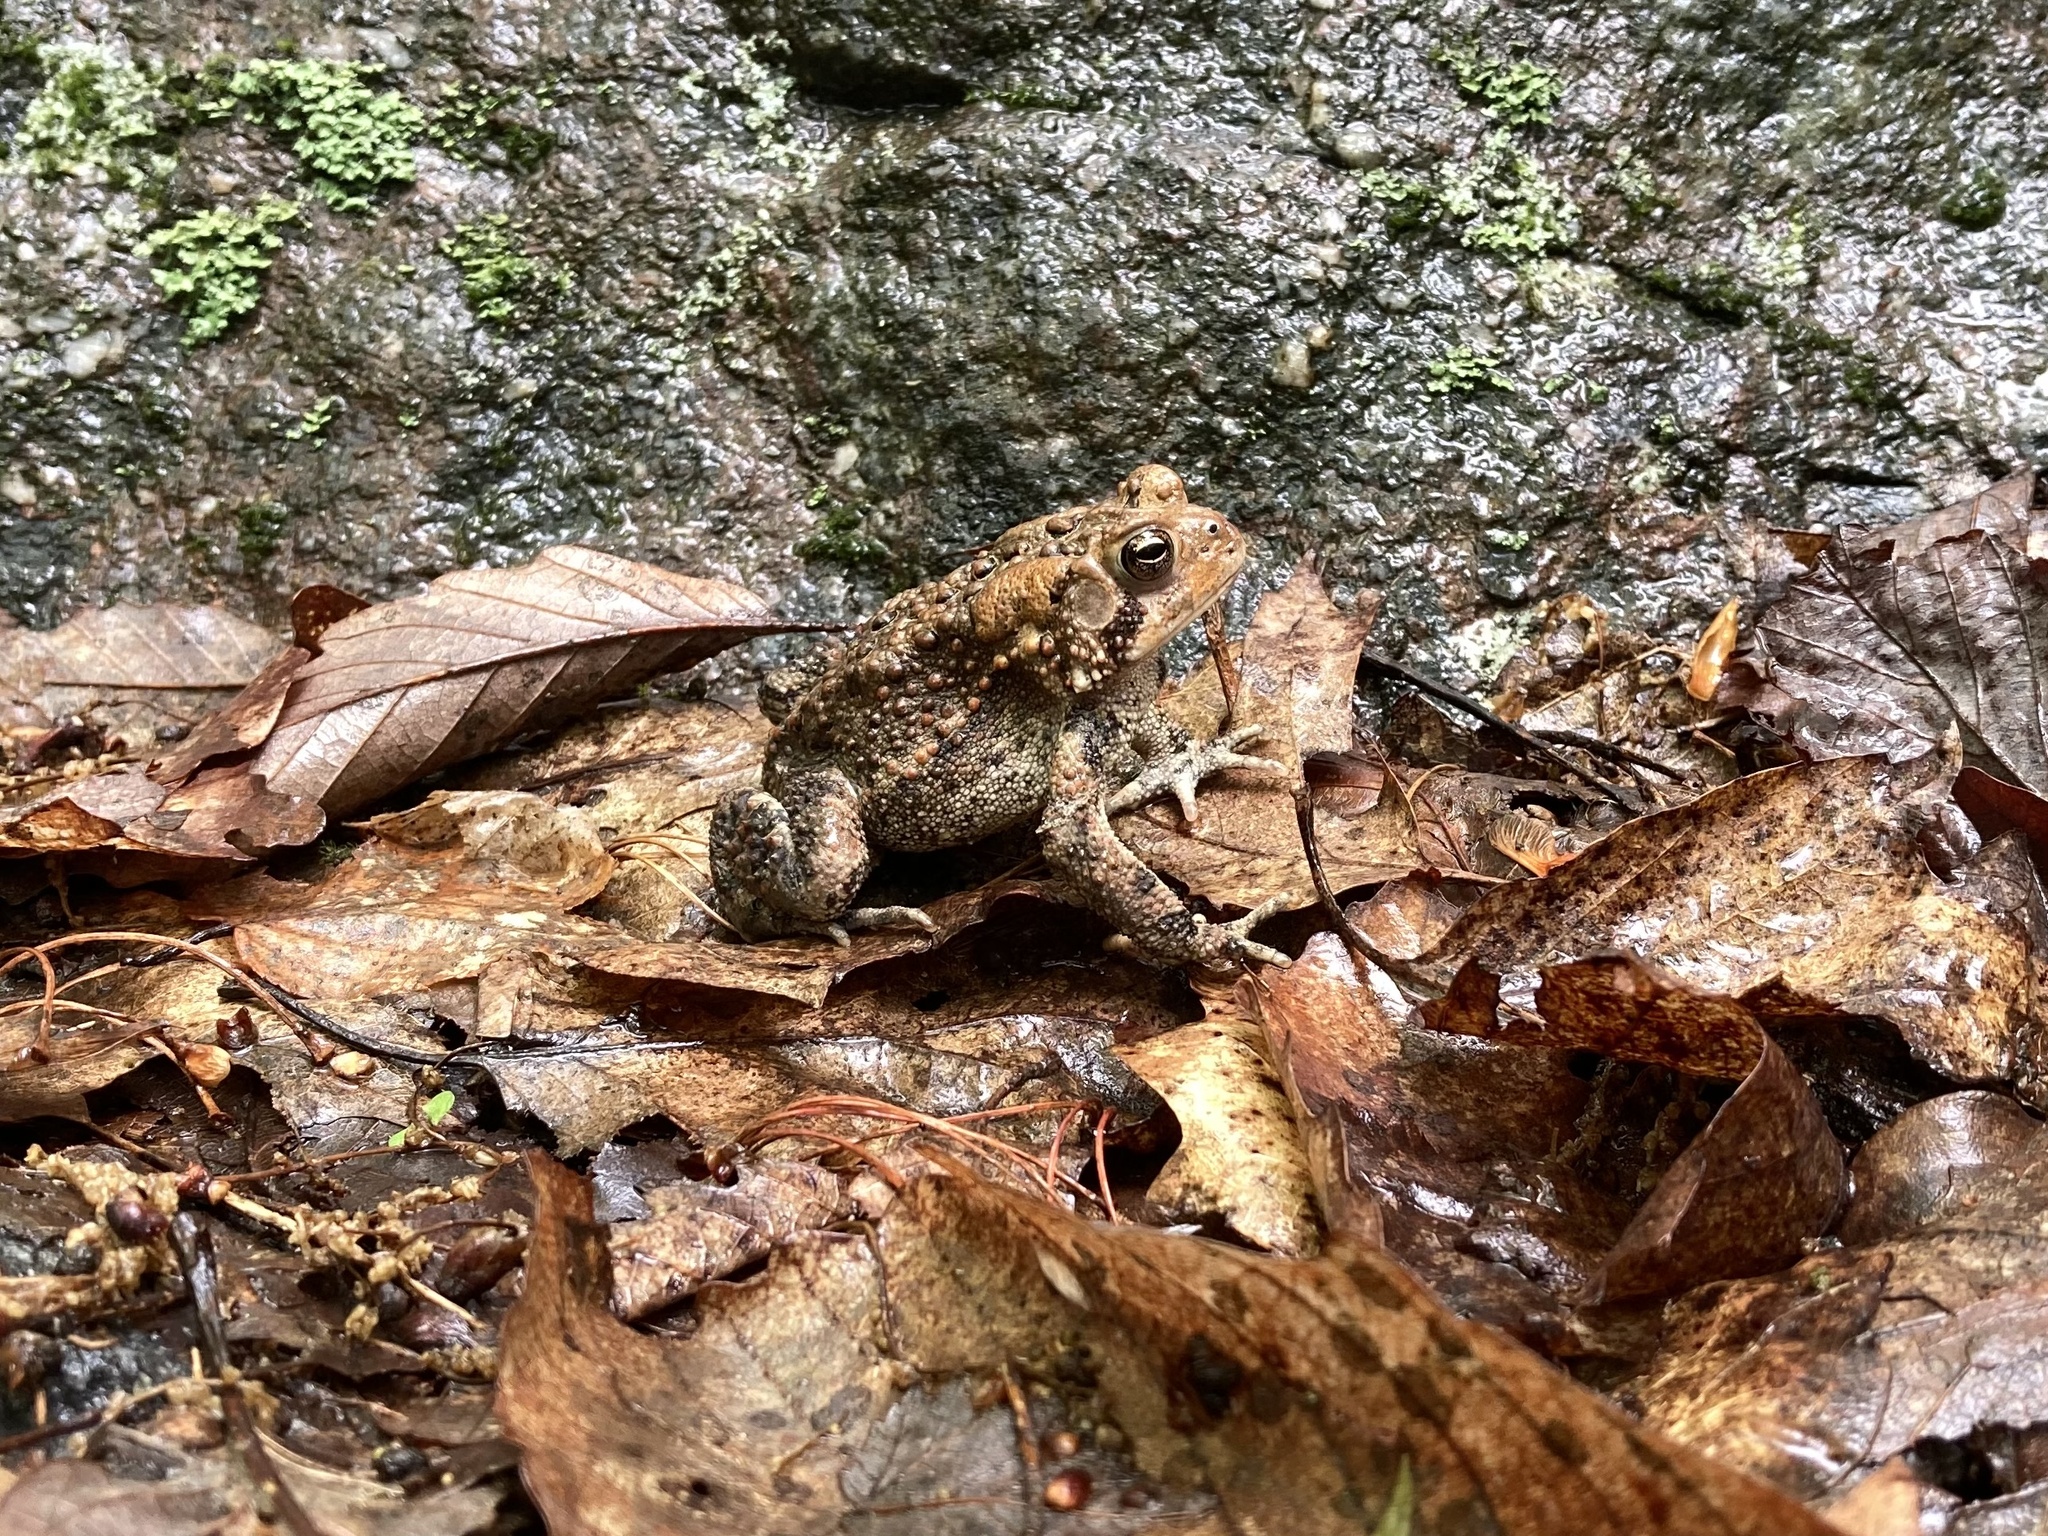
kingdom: Animalia
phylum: Chordata
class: Amphibia
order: Anura
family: Bufonidae
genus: Anaxyrus
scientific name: Anaxyrus americanus
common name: American toad
